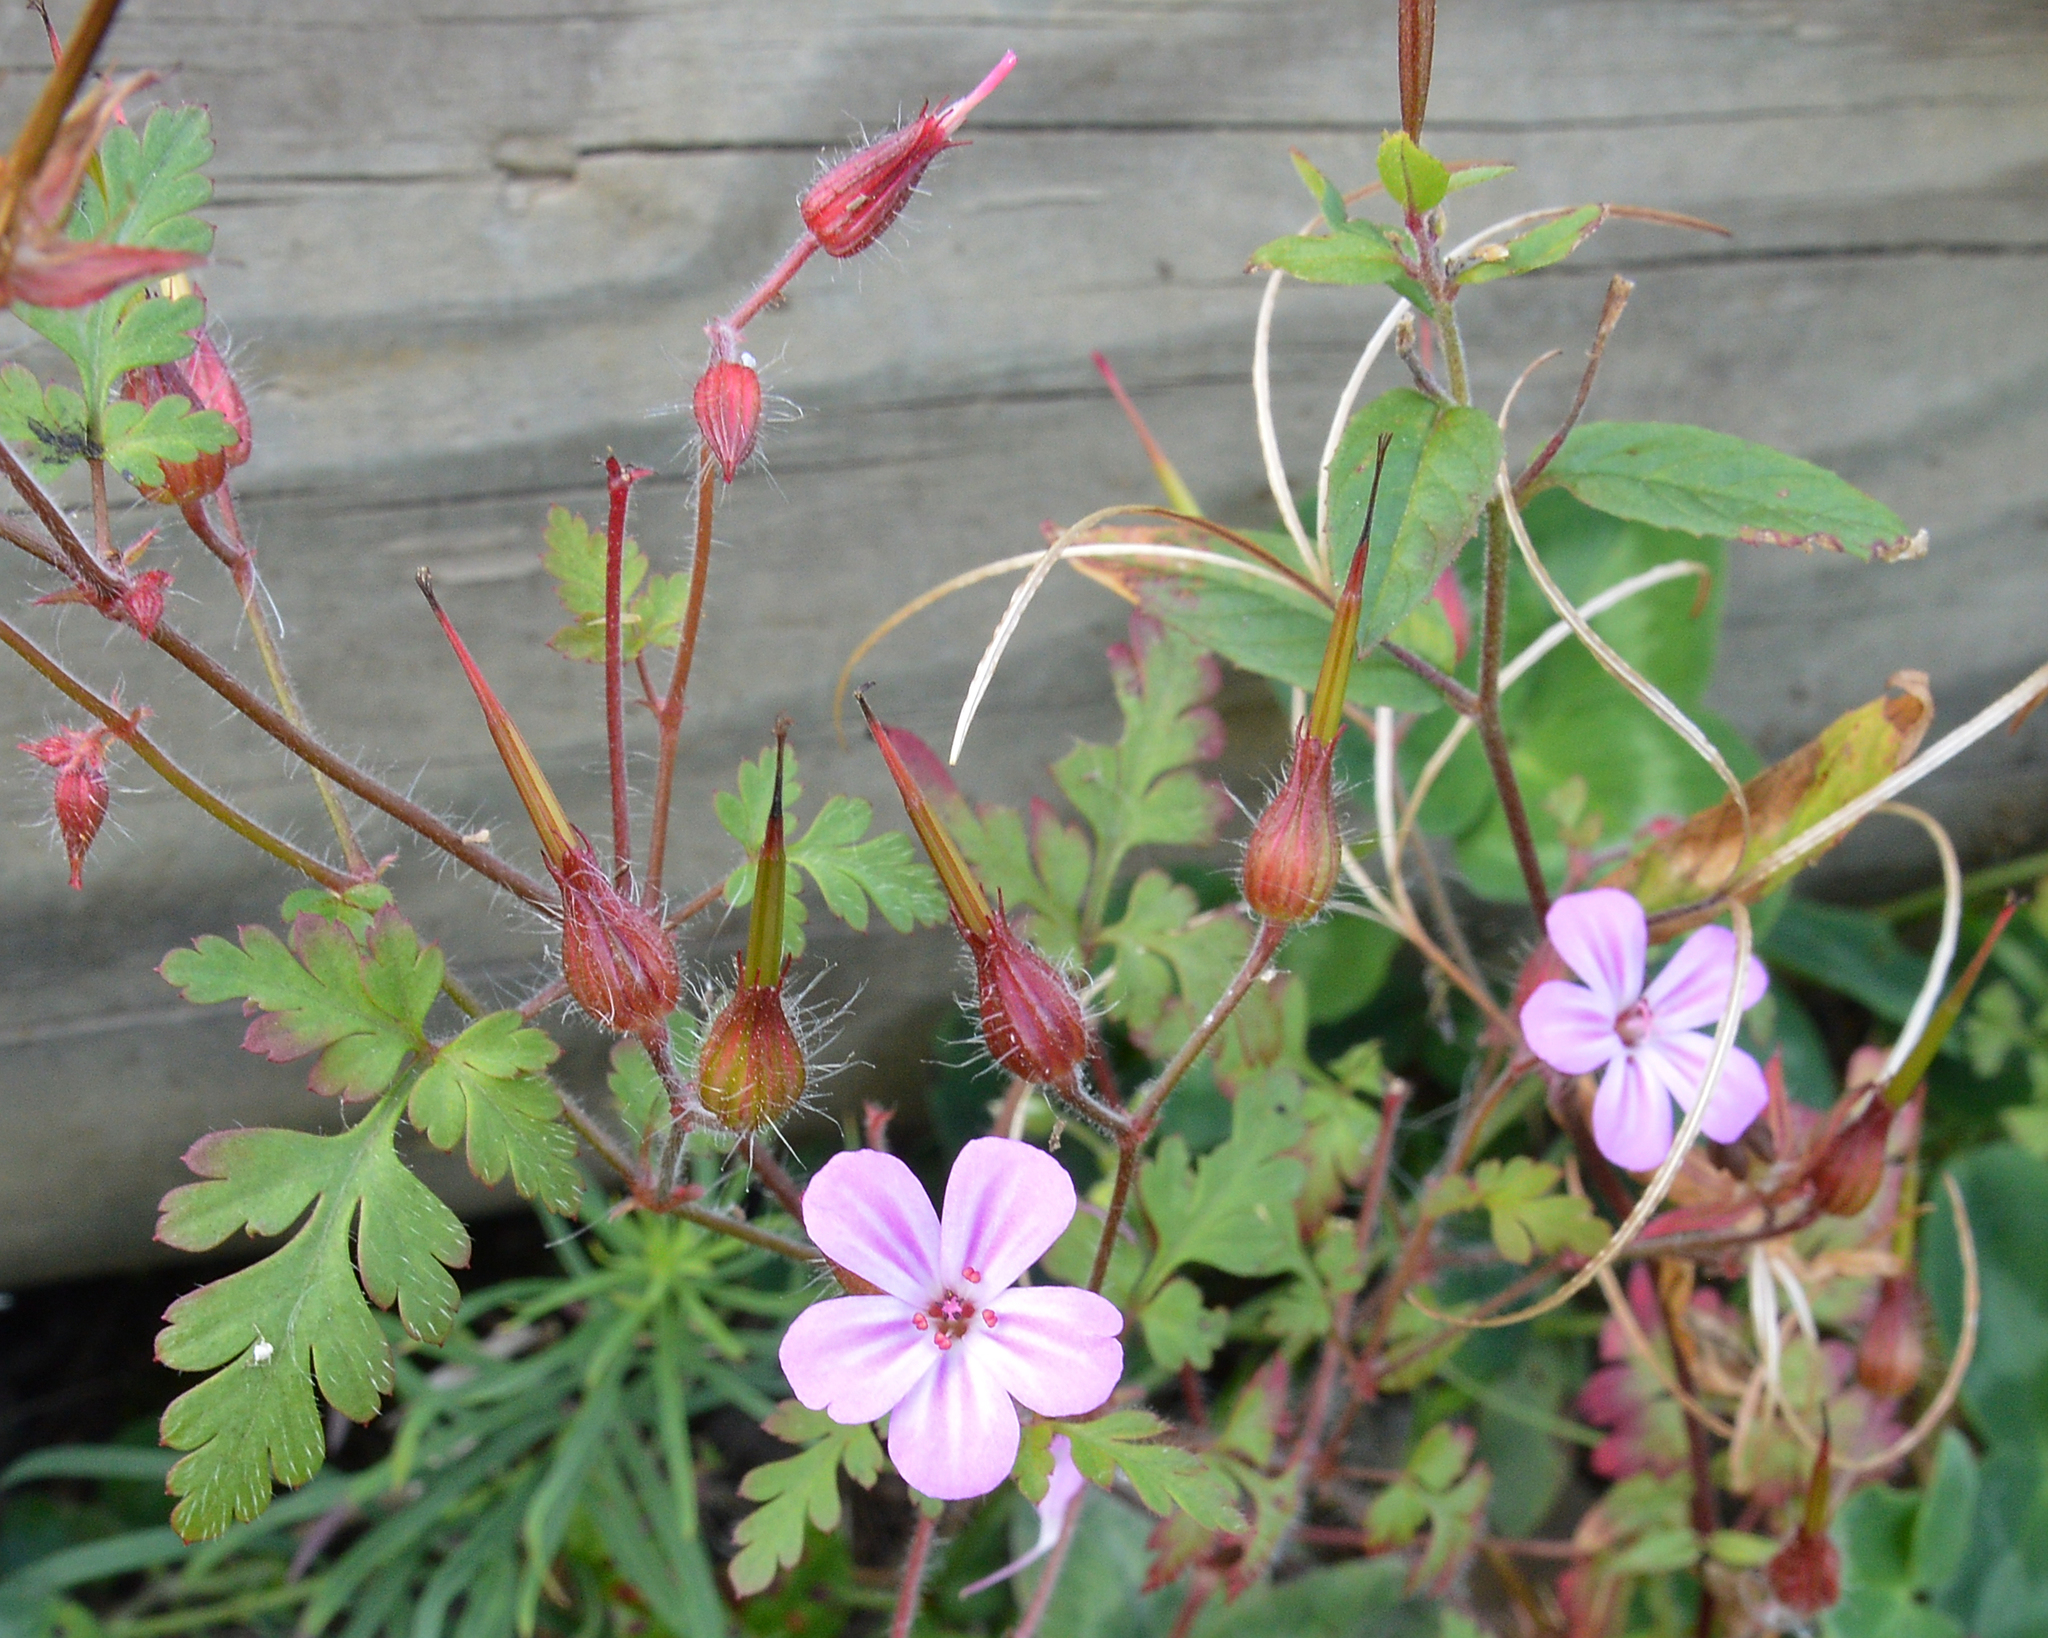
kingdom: Plantae
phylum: Tracheophyta
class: Magnoliopsida
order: Geraniales
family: Geraniaceae
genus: Geranium
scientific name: Geranium robertianum
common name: Herb-robert
